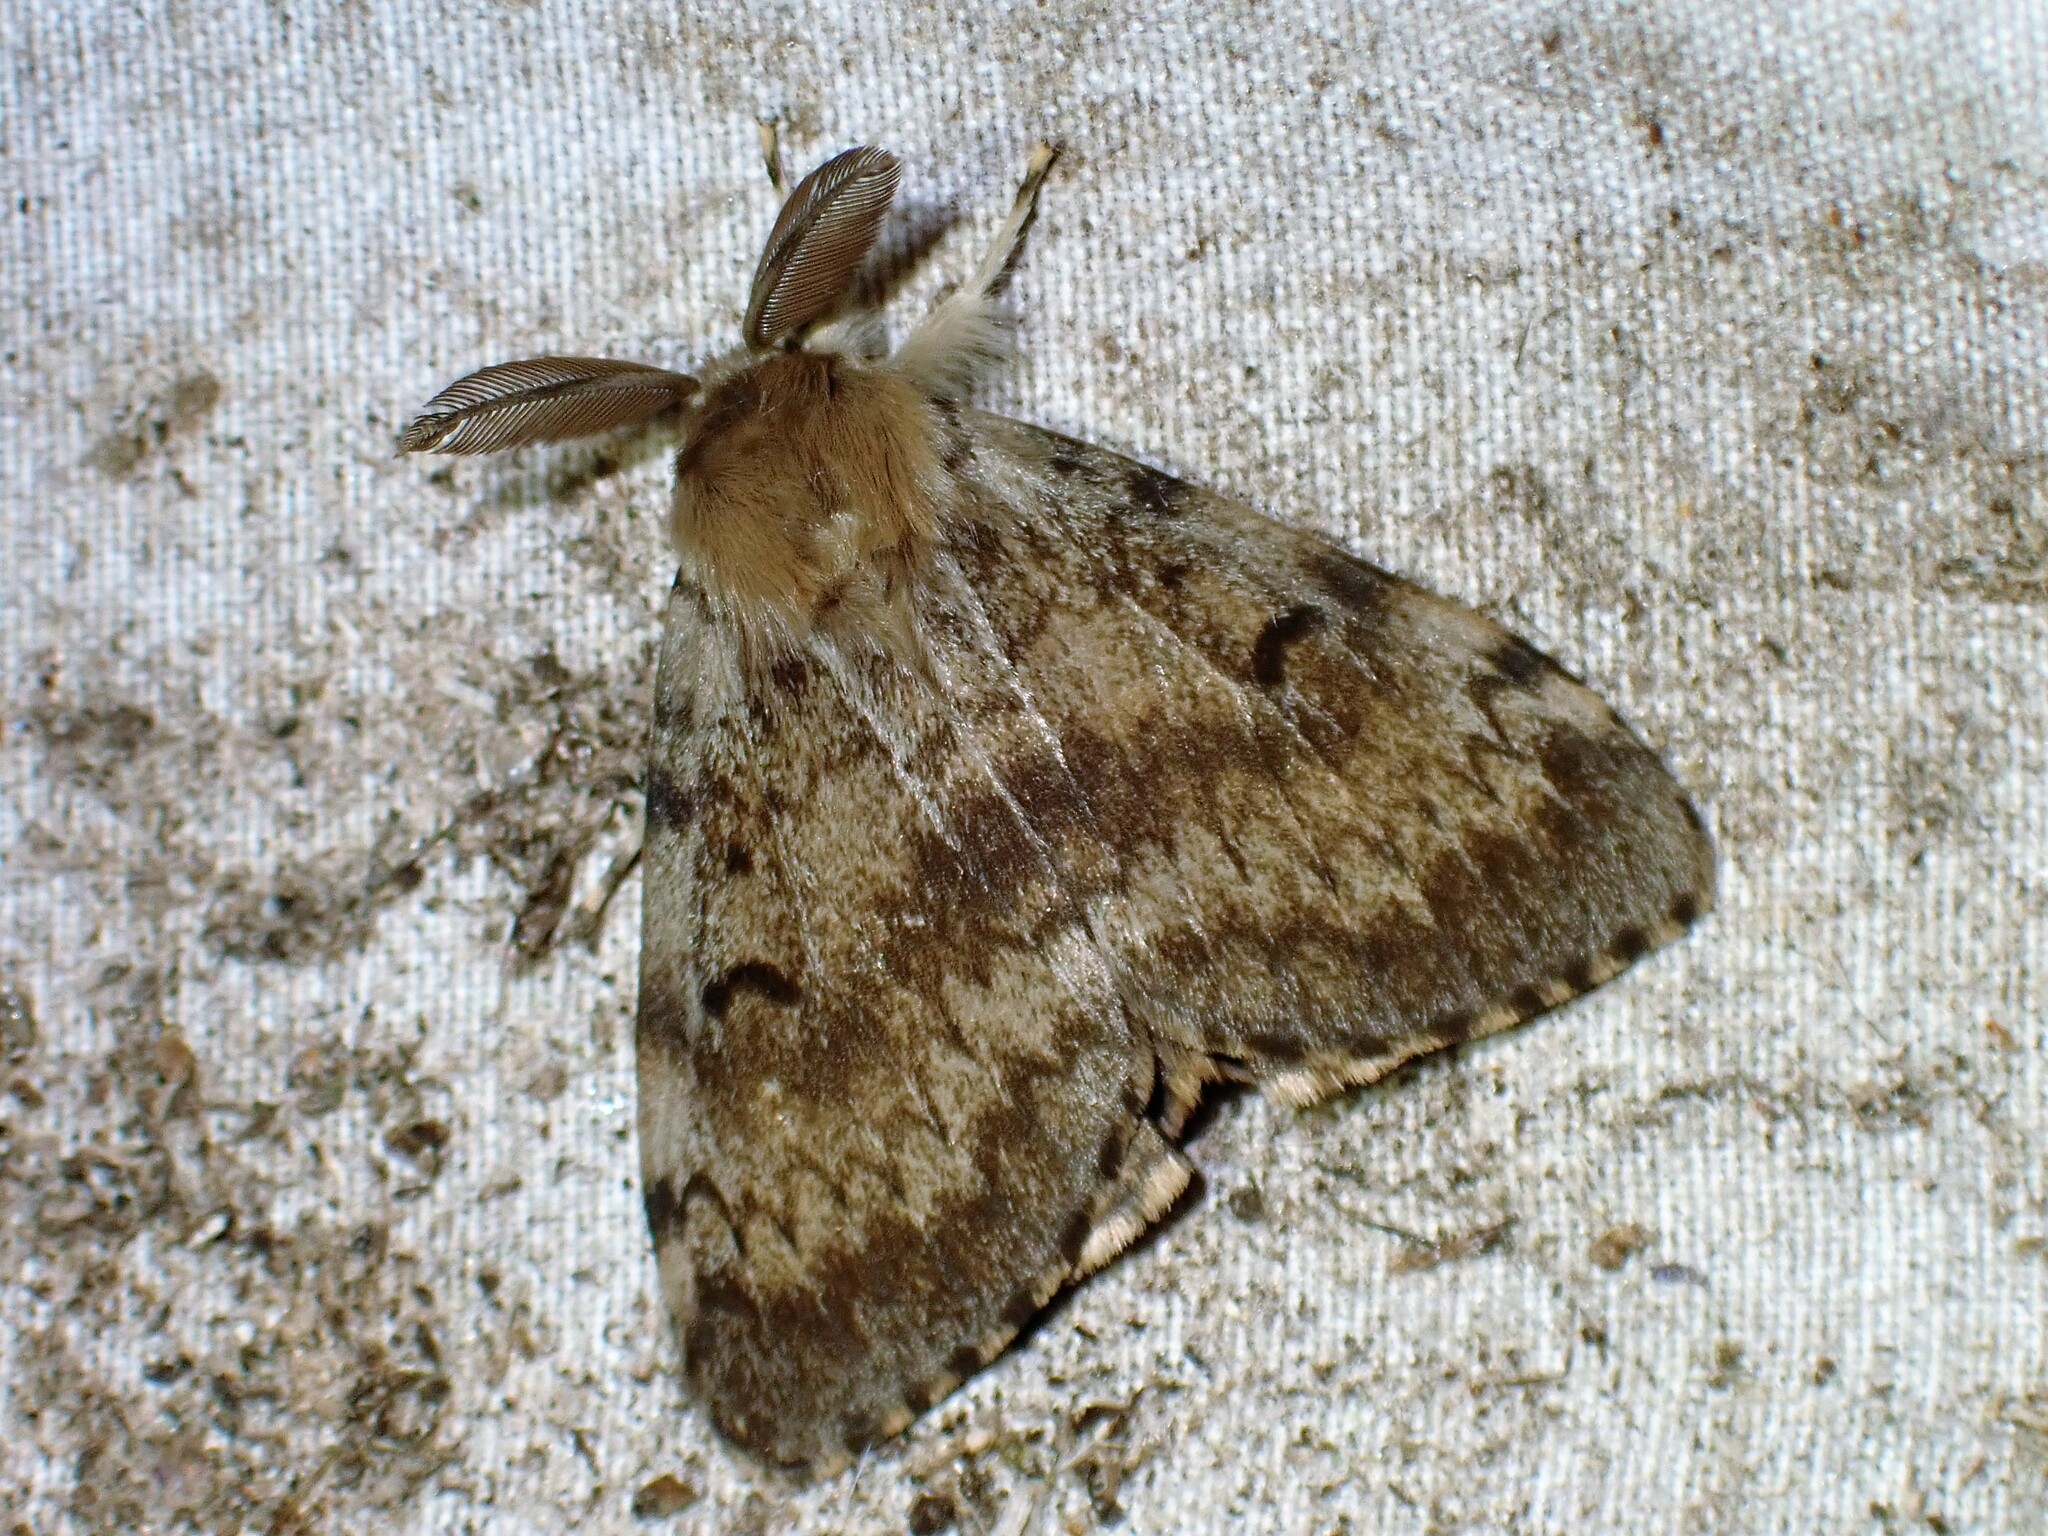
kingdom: Animalia
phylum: Arthropoda
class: Insecta
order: Lepidoptera
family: Erebidae
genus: Lymantria
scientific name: Lymantria dispar
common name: Gypsy moth
